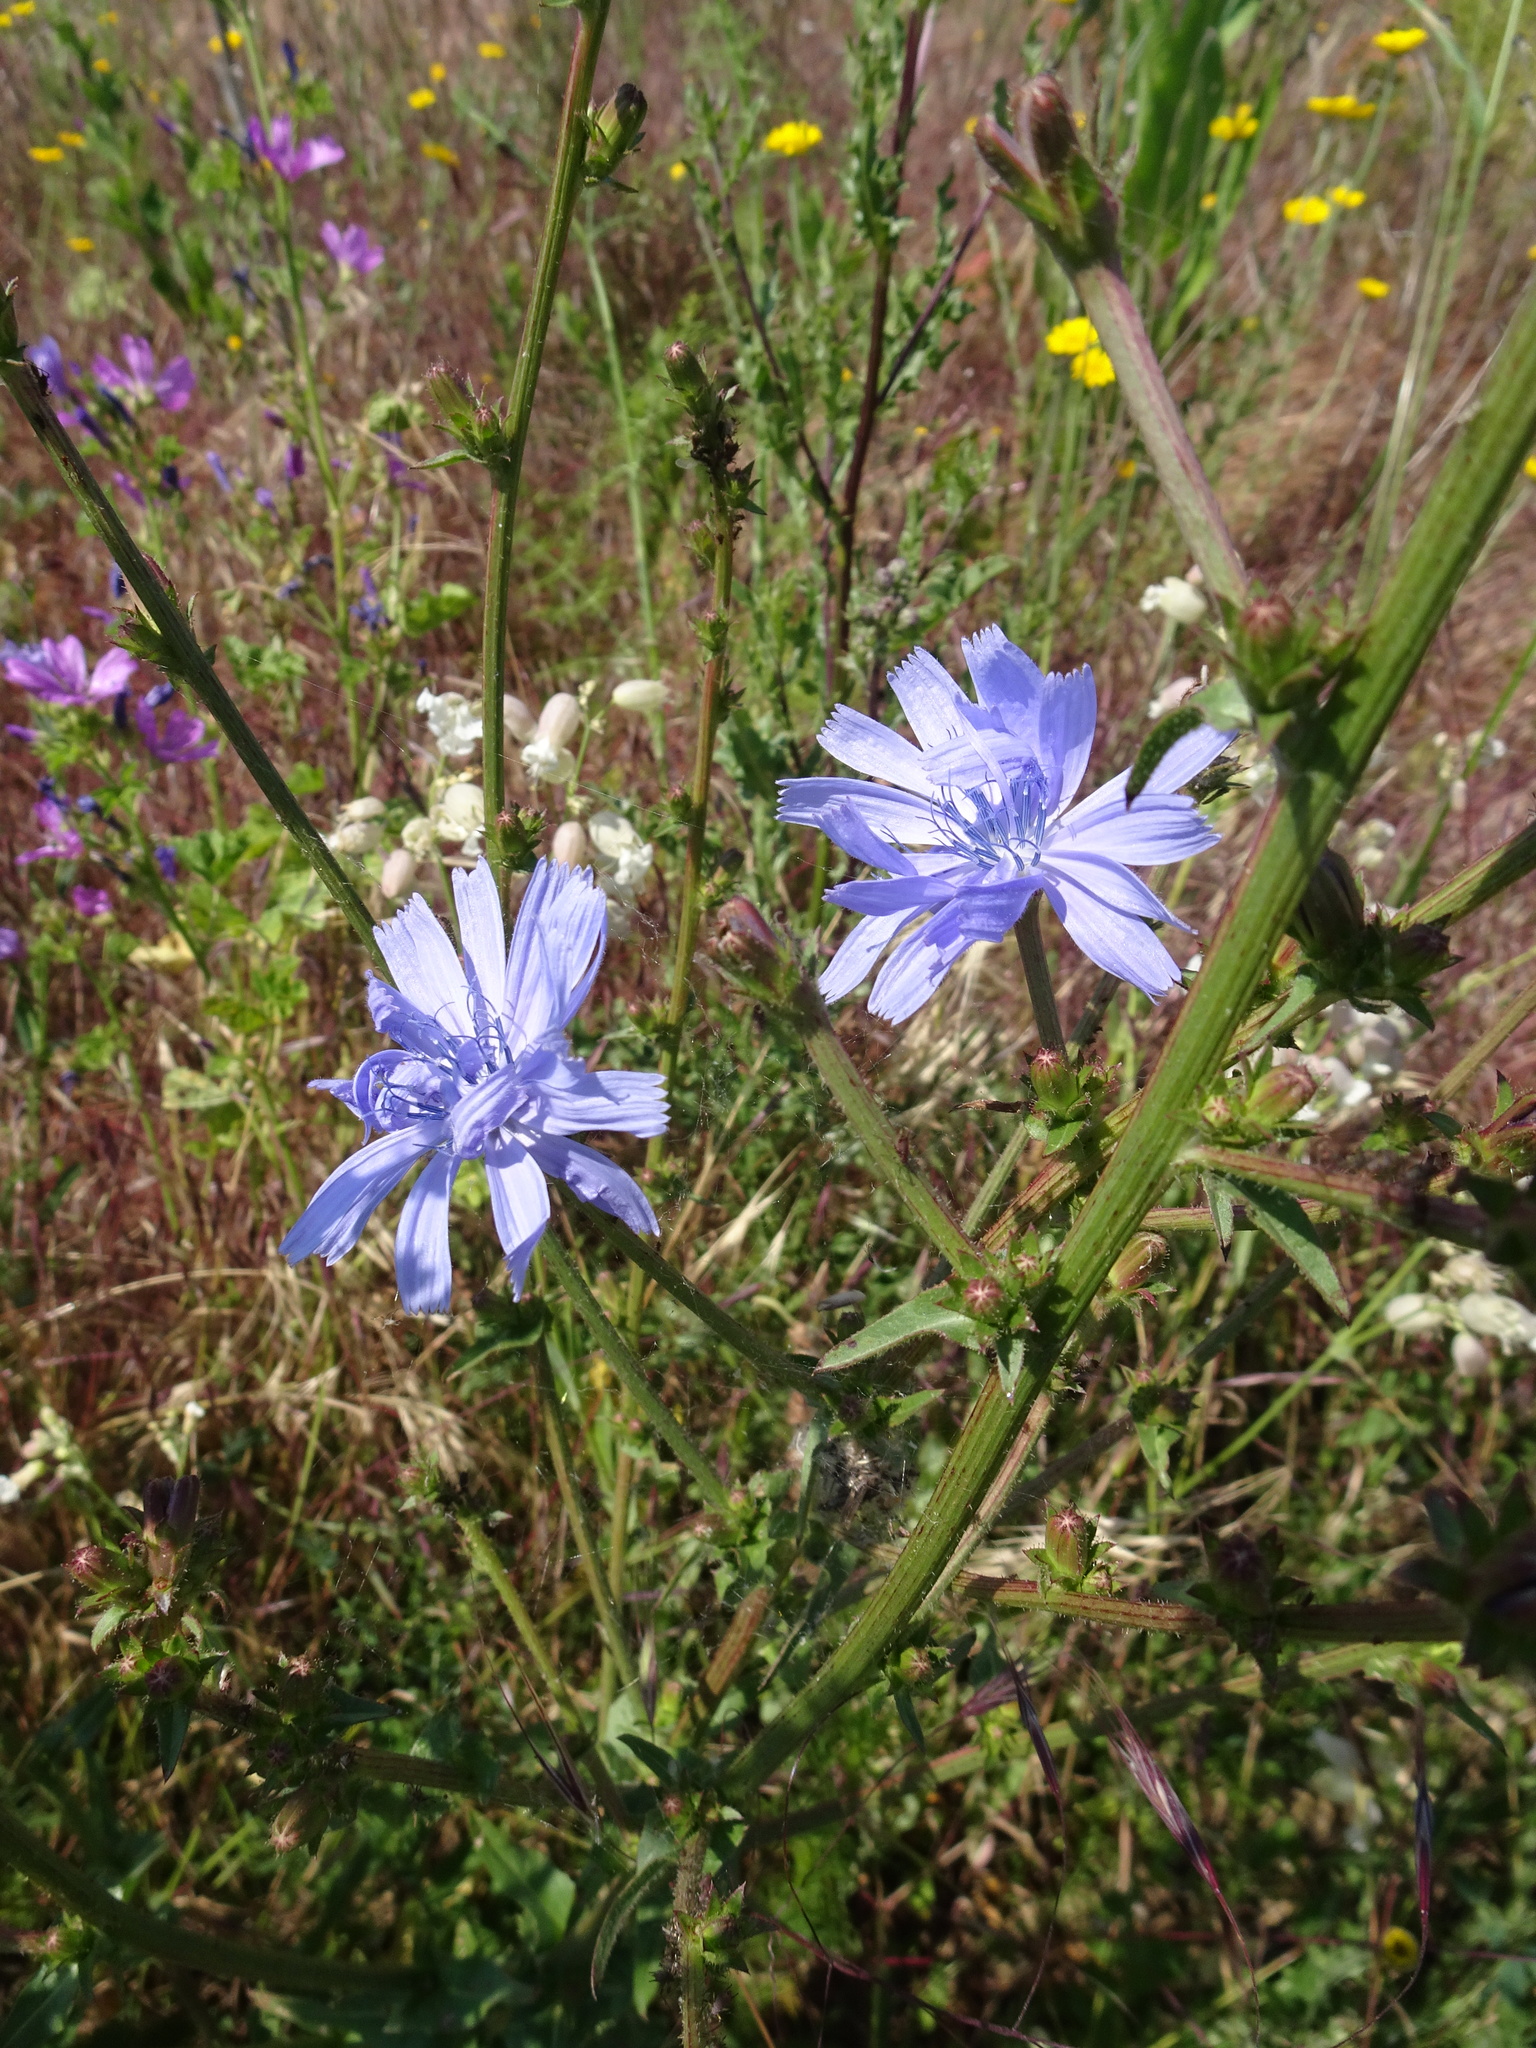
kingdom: Plantae
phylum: Tracheophyta
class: Magnoliopsida
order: Asterales
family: Asteraceae
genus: Cichorium
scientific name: Cichorium intybus
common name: Chicory
